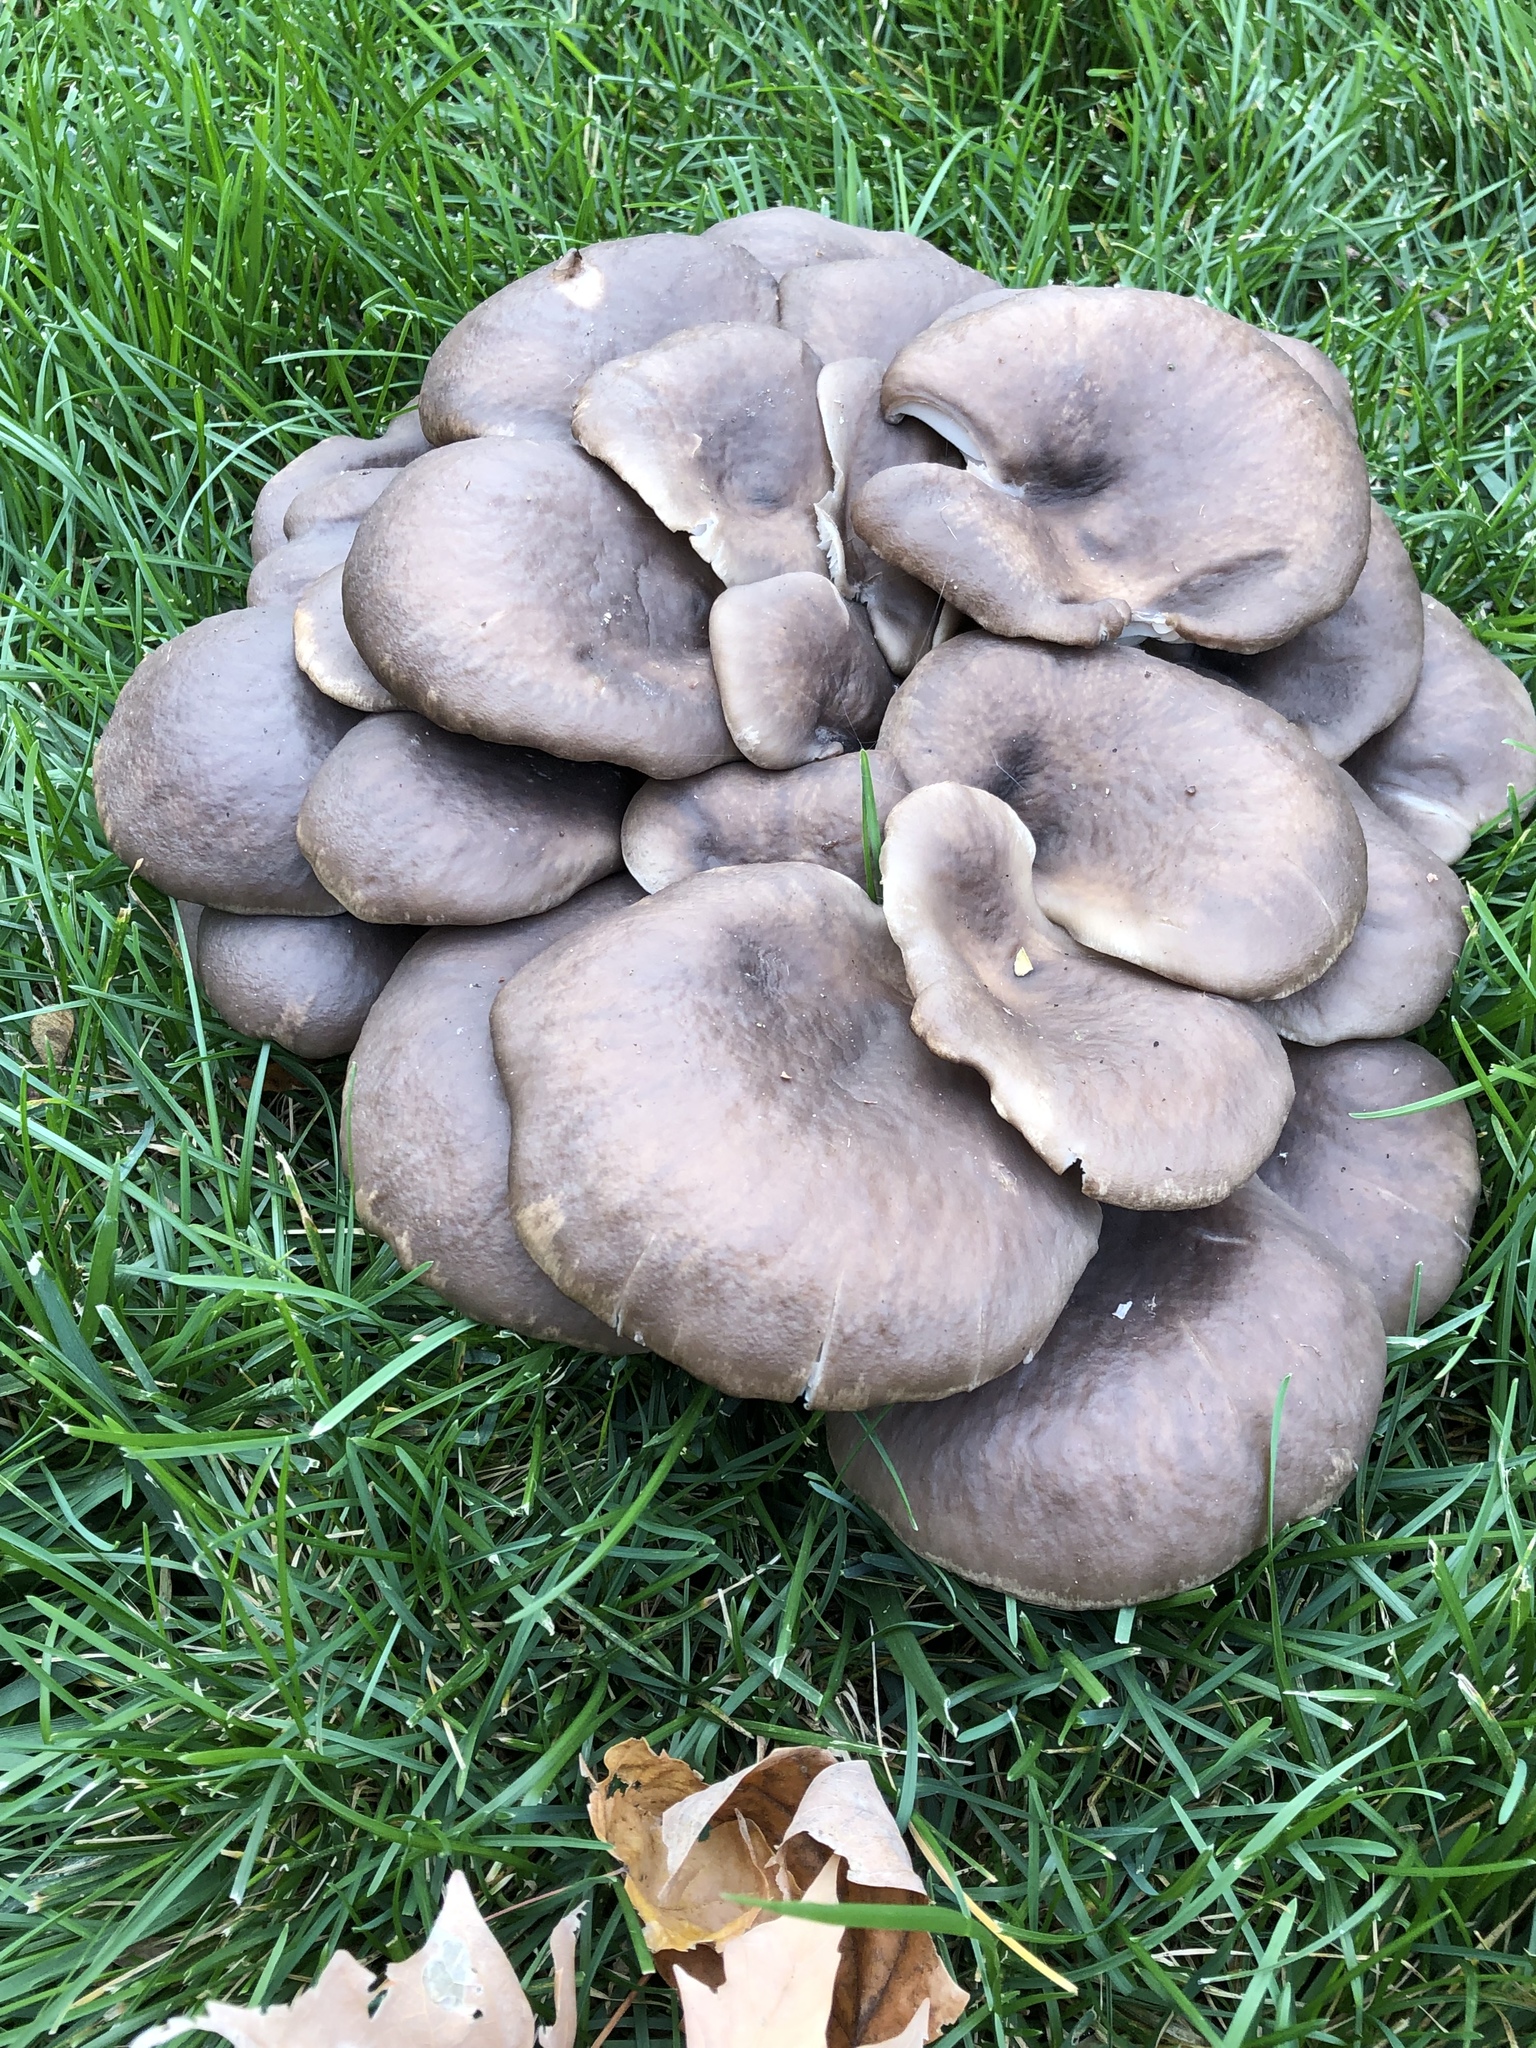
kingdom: Fungi
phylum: Basidiomycota
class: Agaricomycetes
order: Agaricales
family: Pleurotaceae
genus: Pleurotus
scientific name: Pleurotus ostreatus
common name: Oyster mushroom
